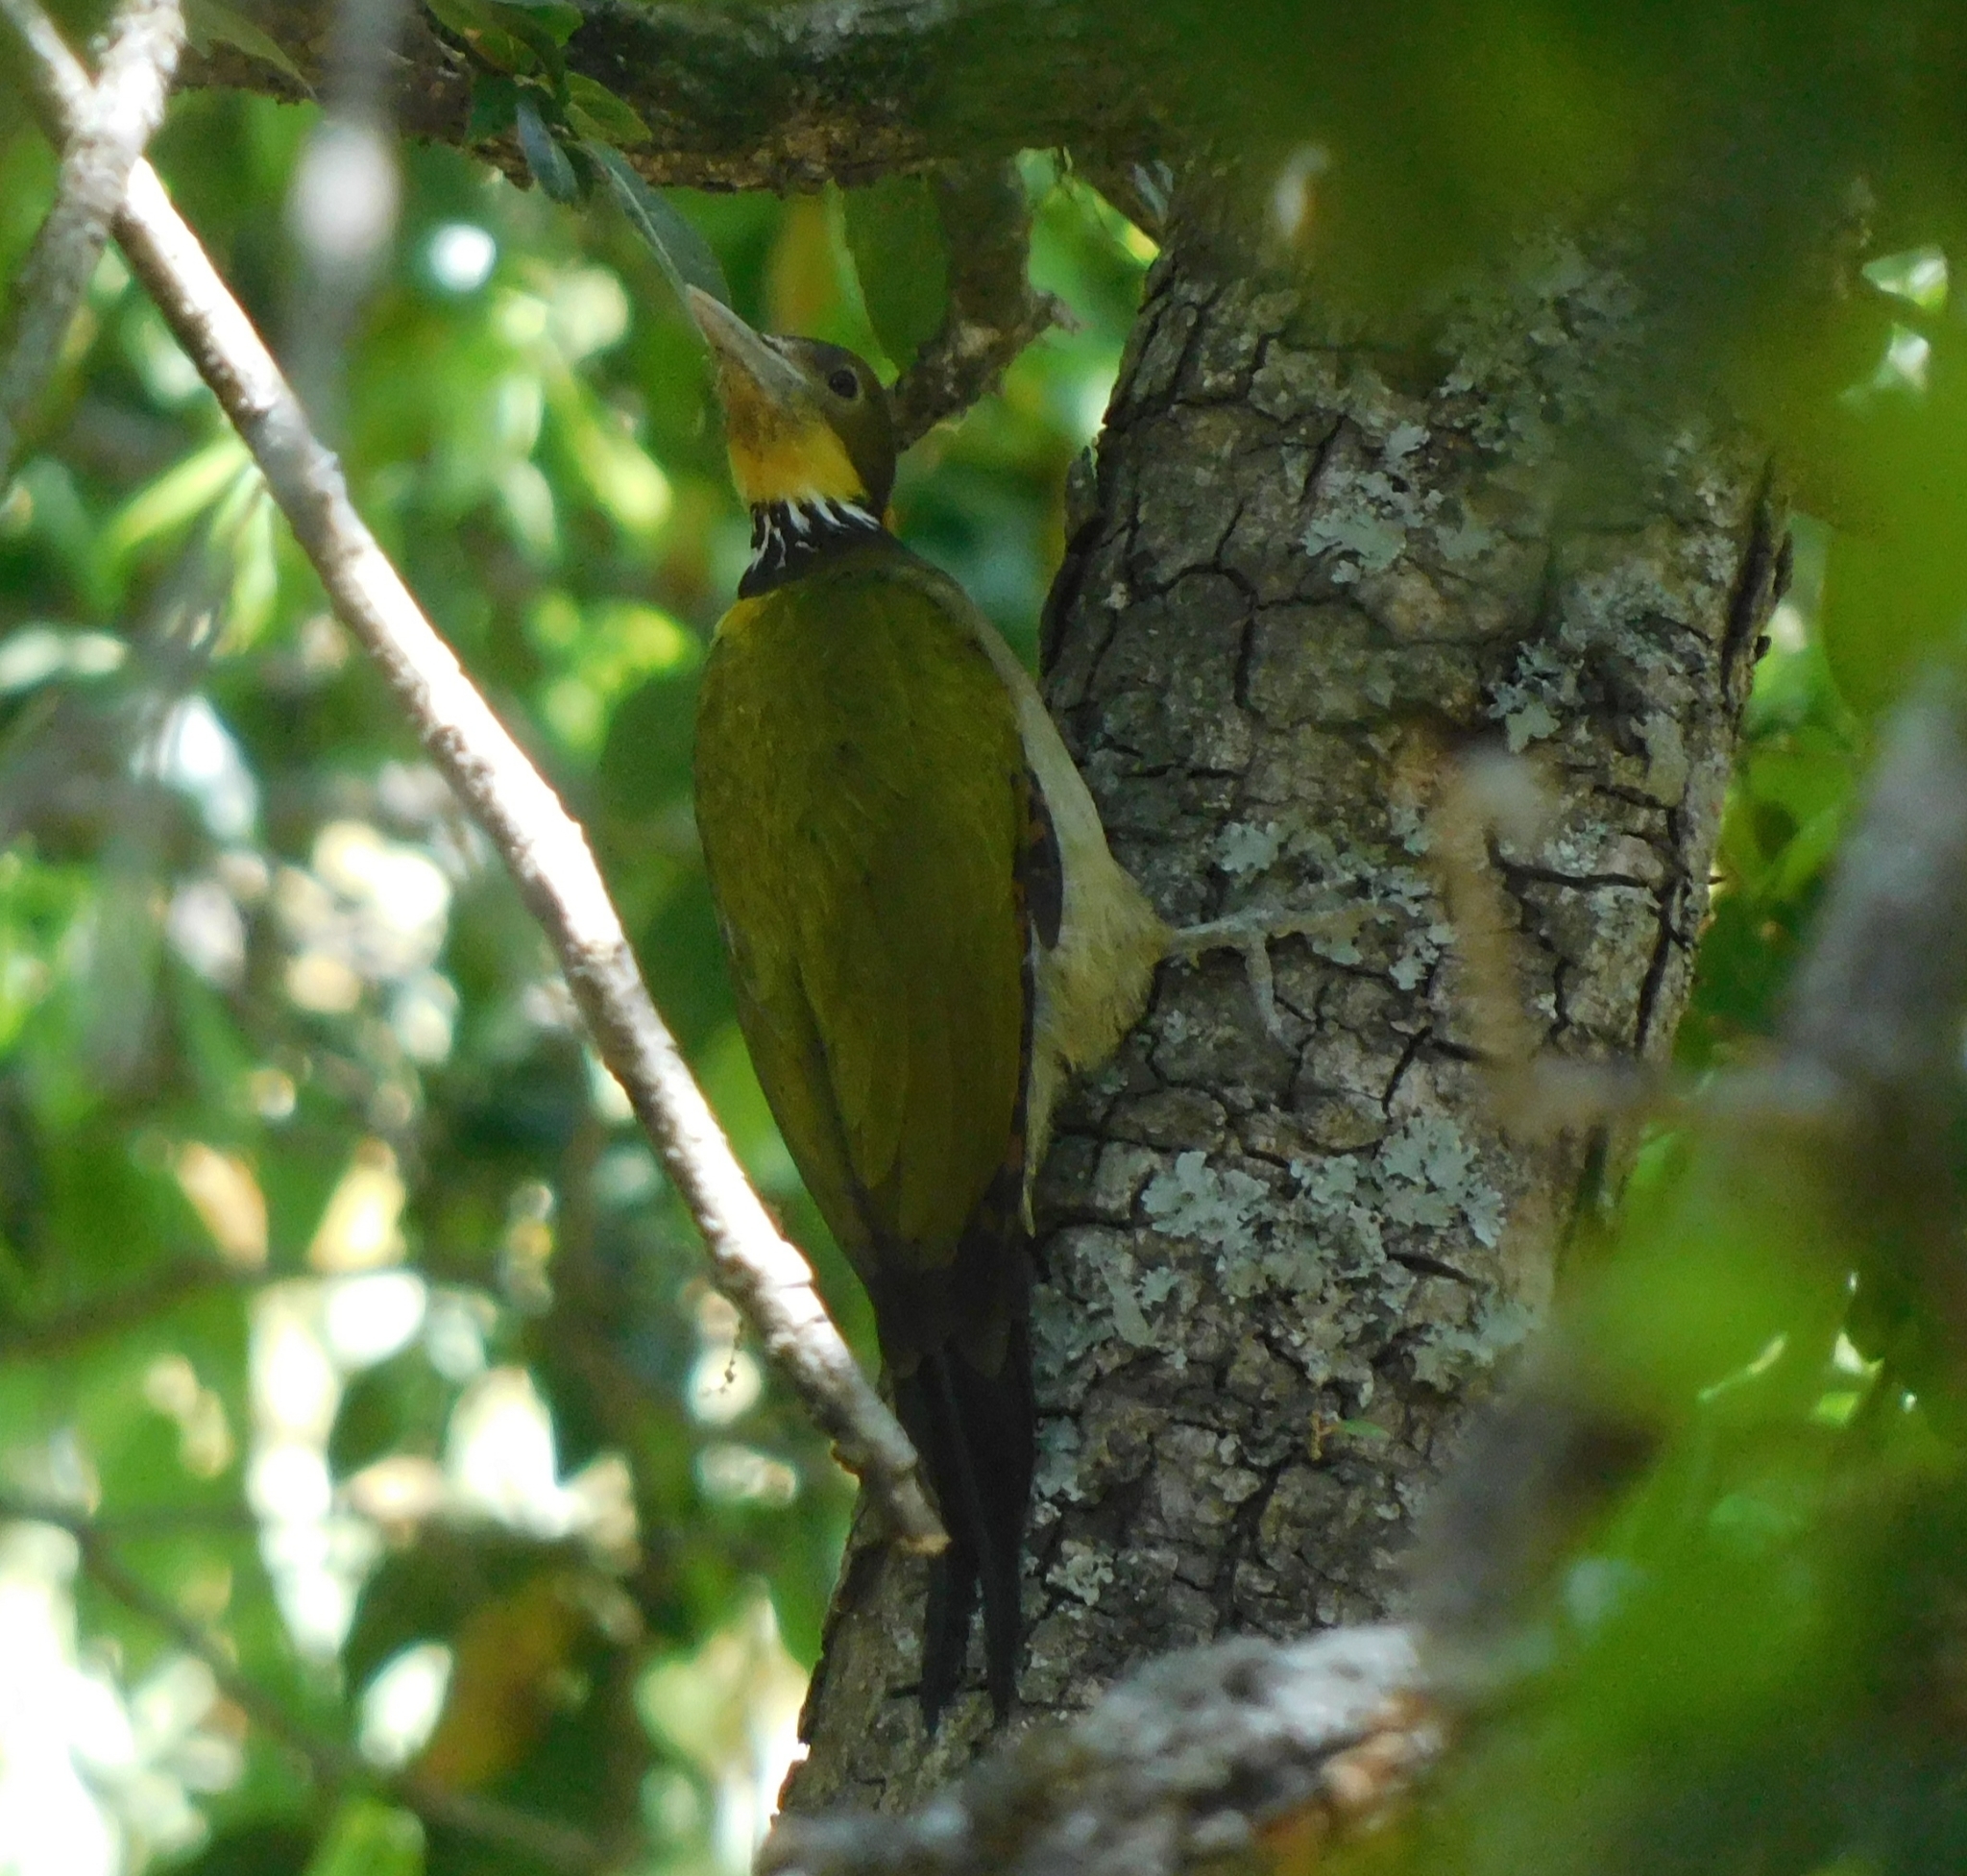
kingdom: Animalia
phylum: Chordata
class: Aves
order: Piciformes
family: Picidae
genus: Chrysophlegma
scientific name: Chrysophlegma flavinucha
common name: Greater yellownape
